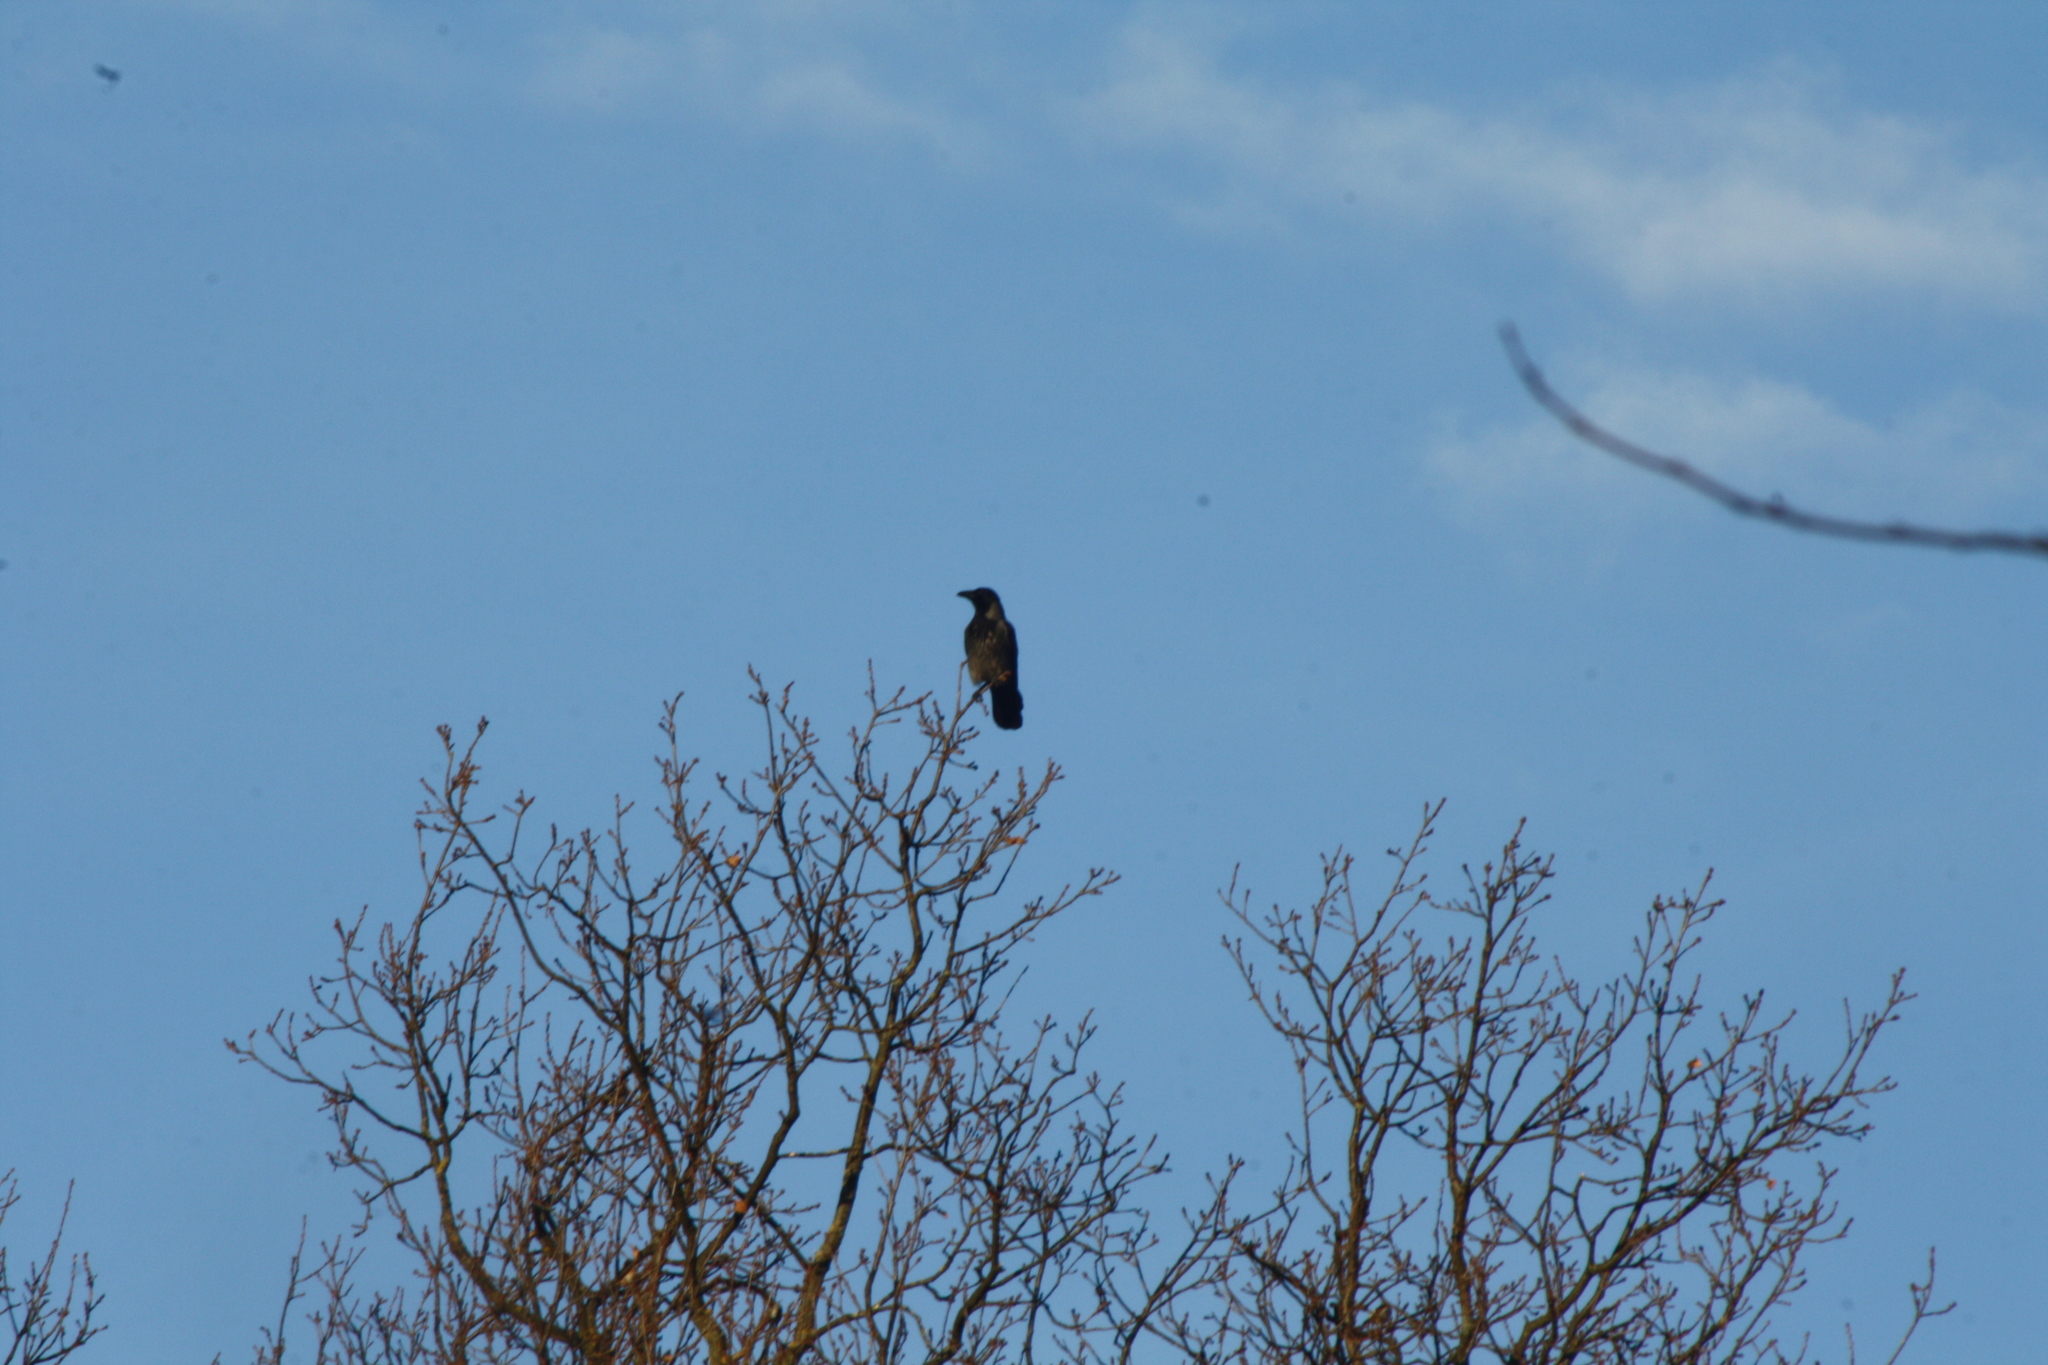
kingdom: Animalia
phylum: Chordata
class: Aves
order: Passeriformes
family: Corvidae
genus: Corvus
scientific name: Corvus
